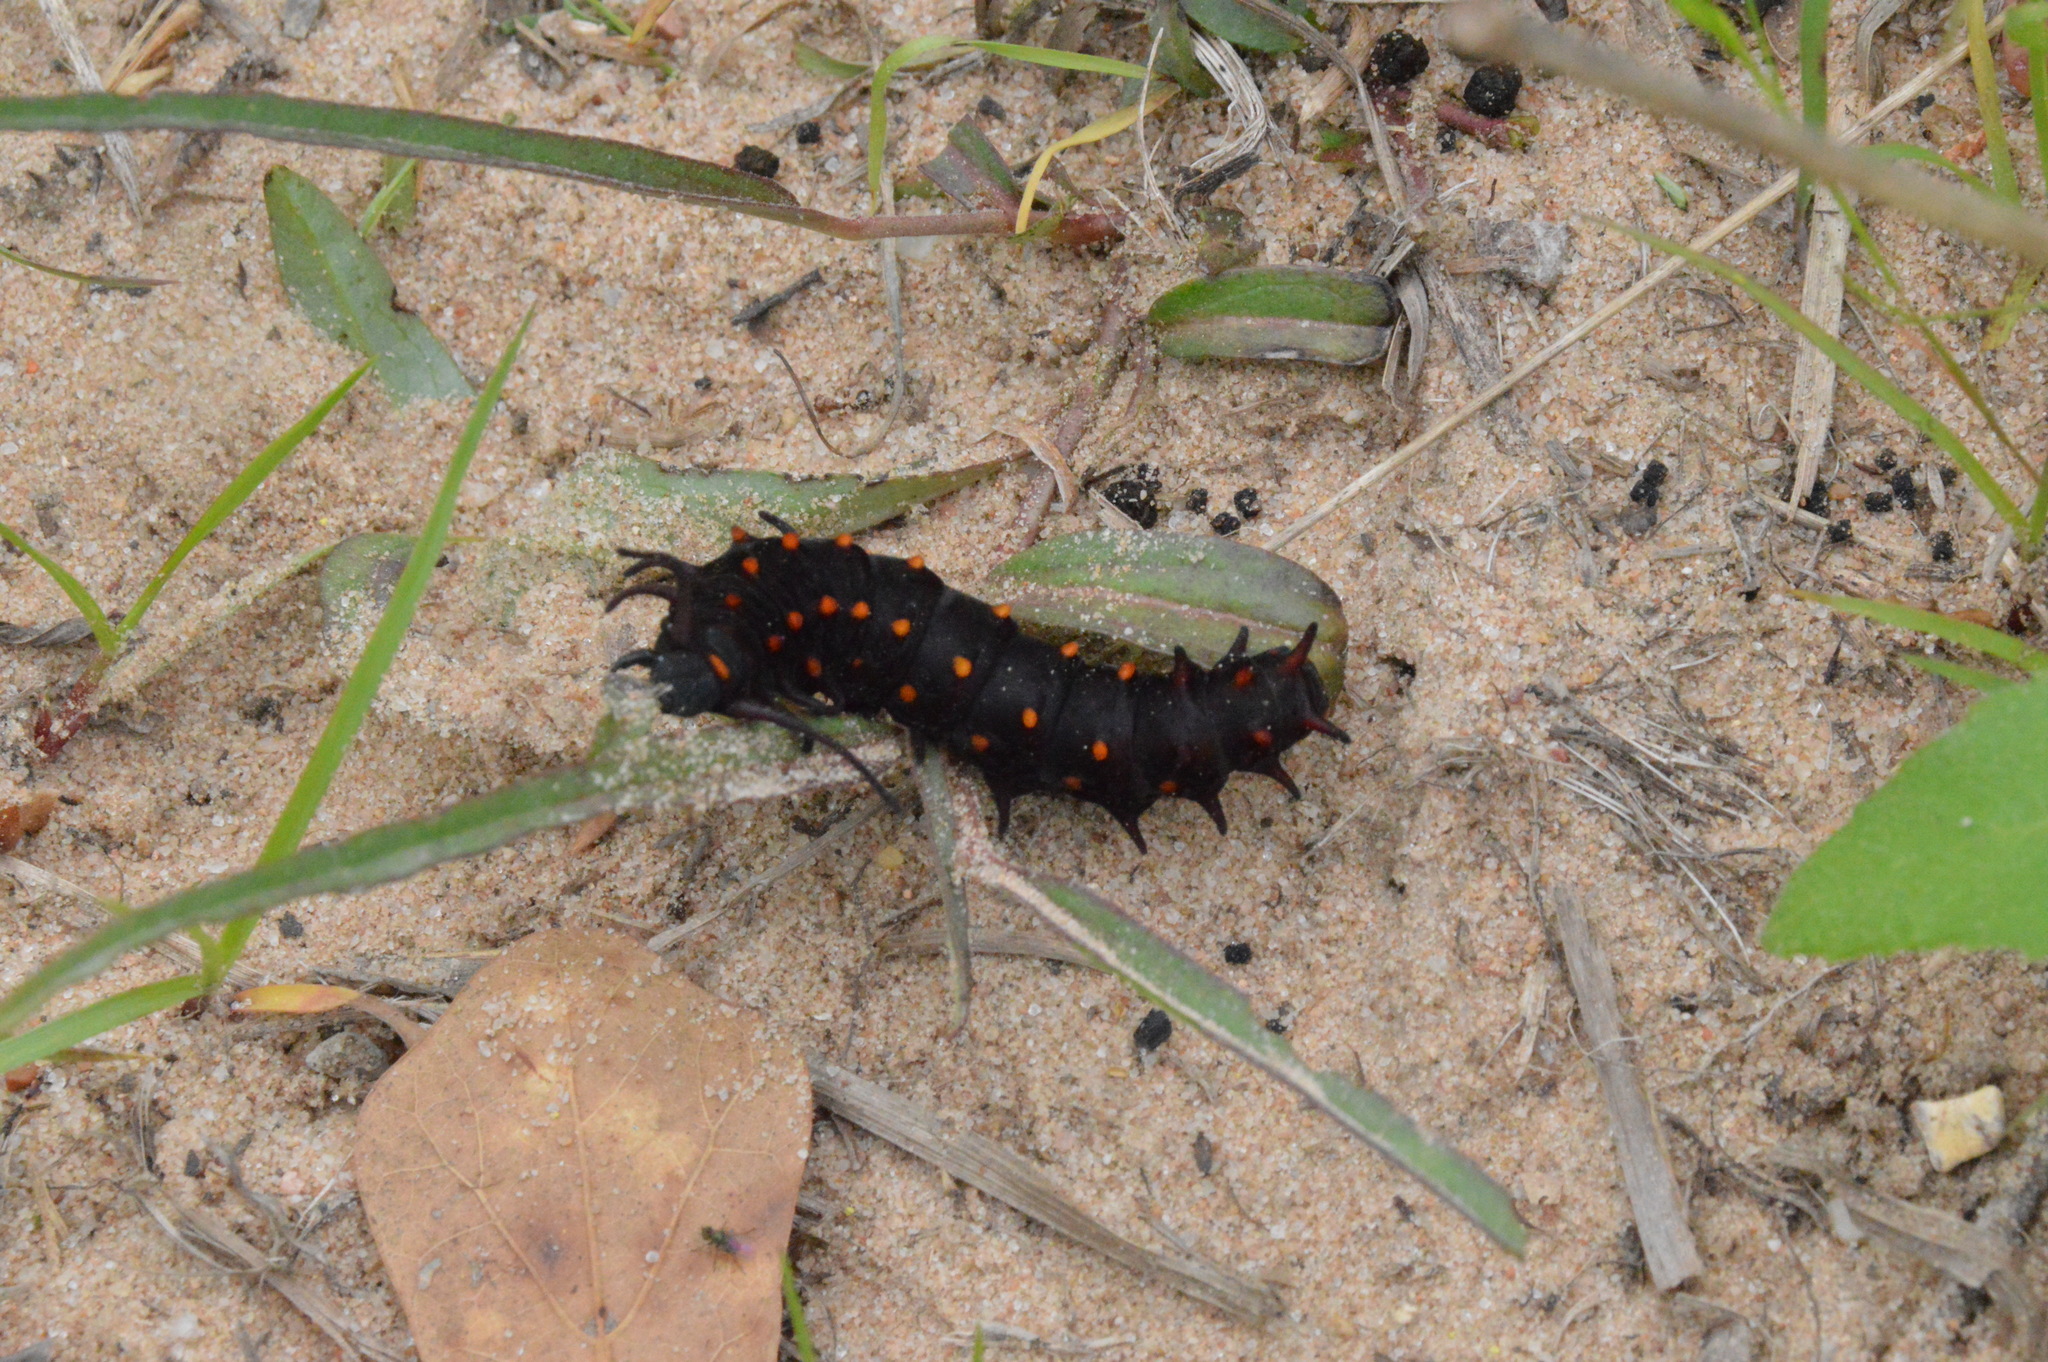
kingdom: Animalia
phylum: Arthropoda
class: Insecta
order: Lepidoptera
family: Papilionidae
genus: Battus
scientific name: Battus philenor
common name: Pipevine swallowtail
